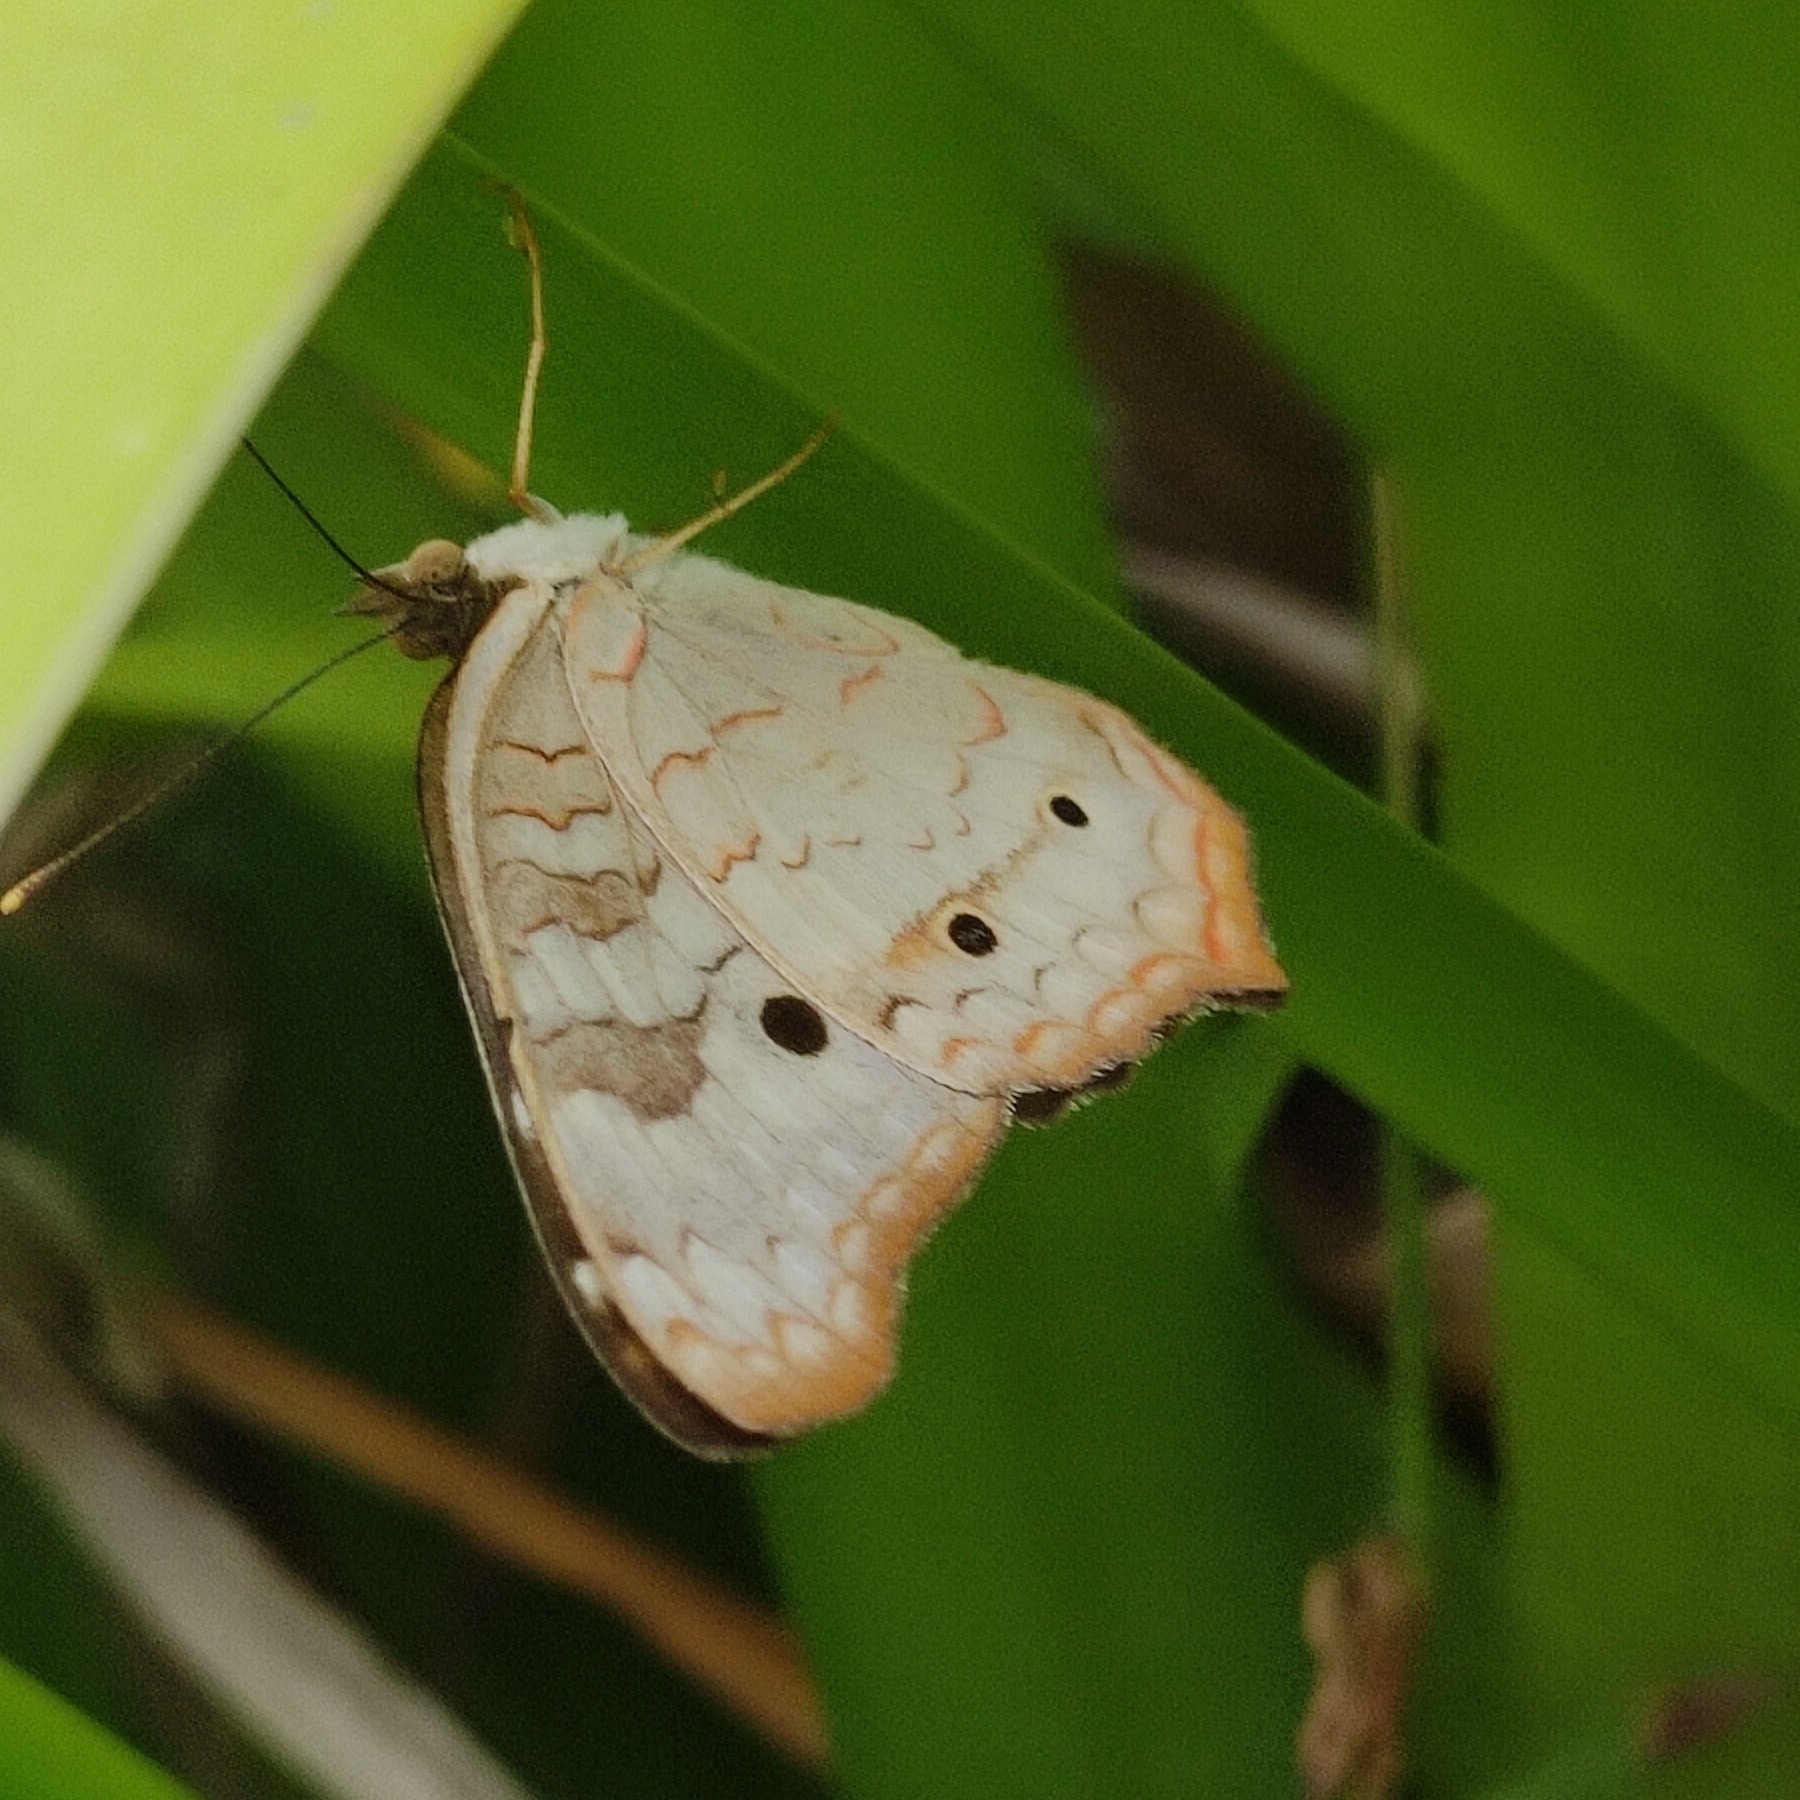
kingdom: Animalia
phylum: Arthropoda
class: Insecta
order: Lepidoptera
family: Nymphalidae
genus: Anartia
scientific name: Anartia jatrophae
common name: White peacock
